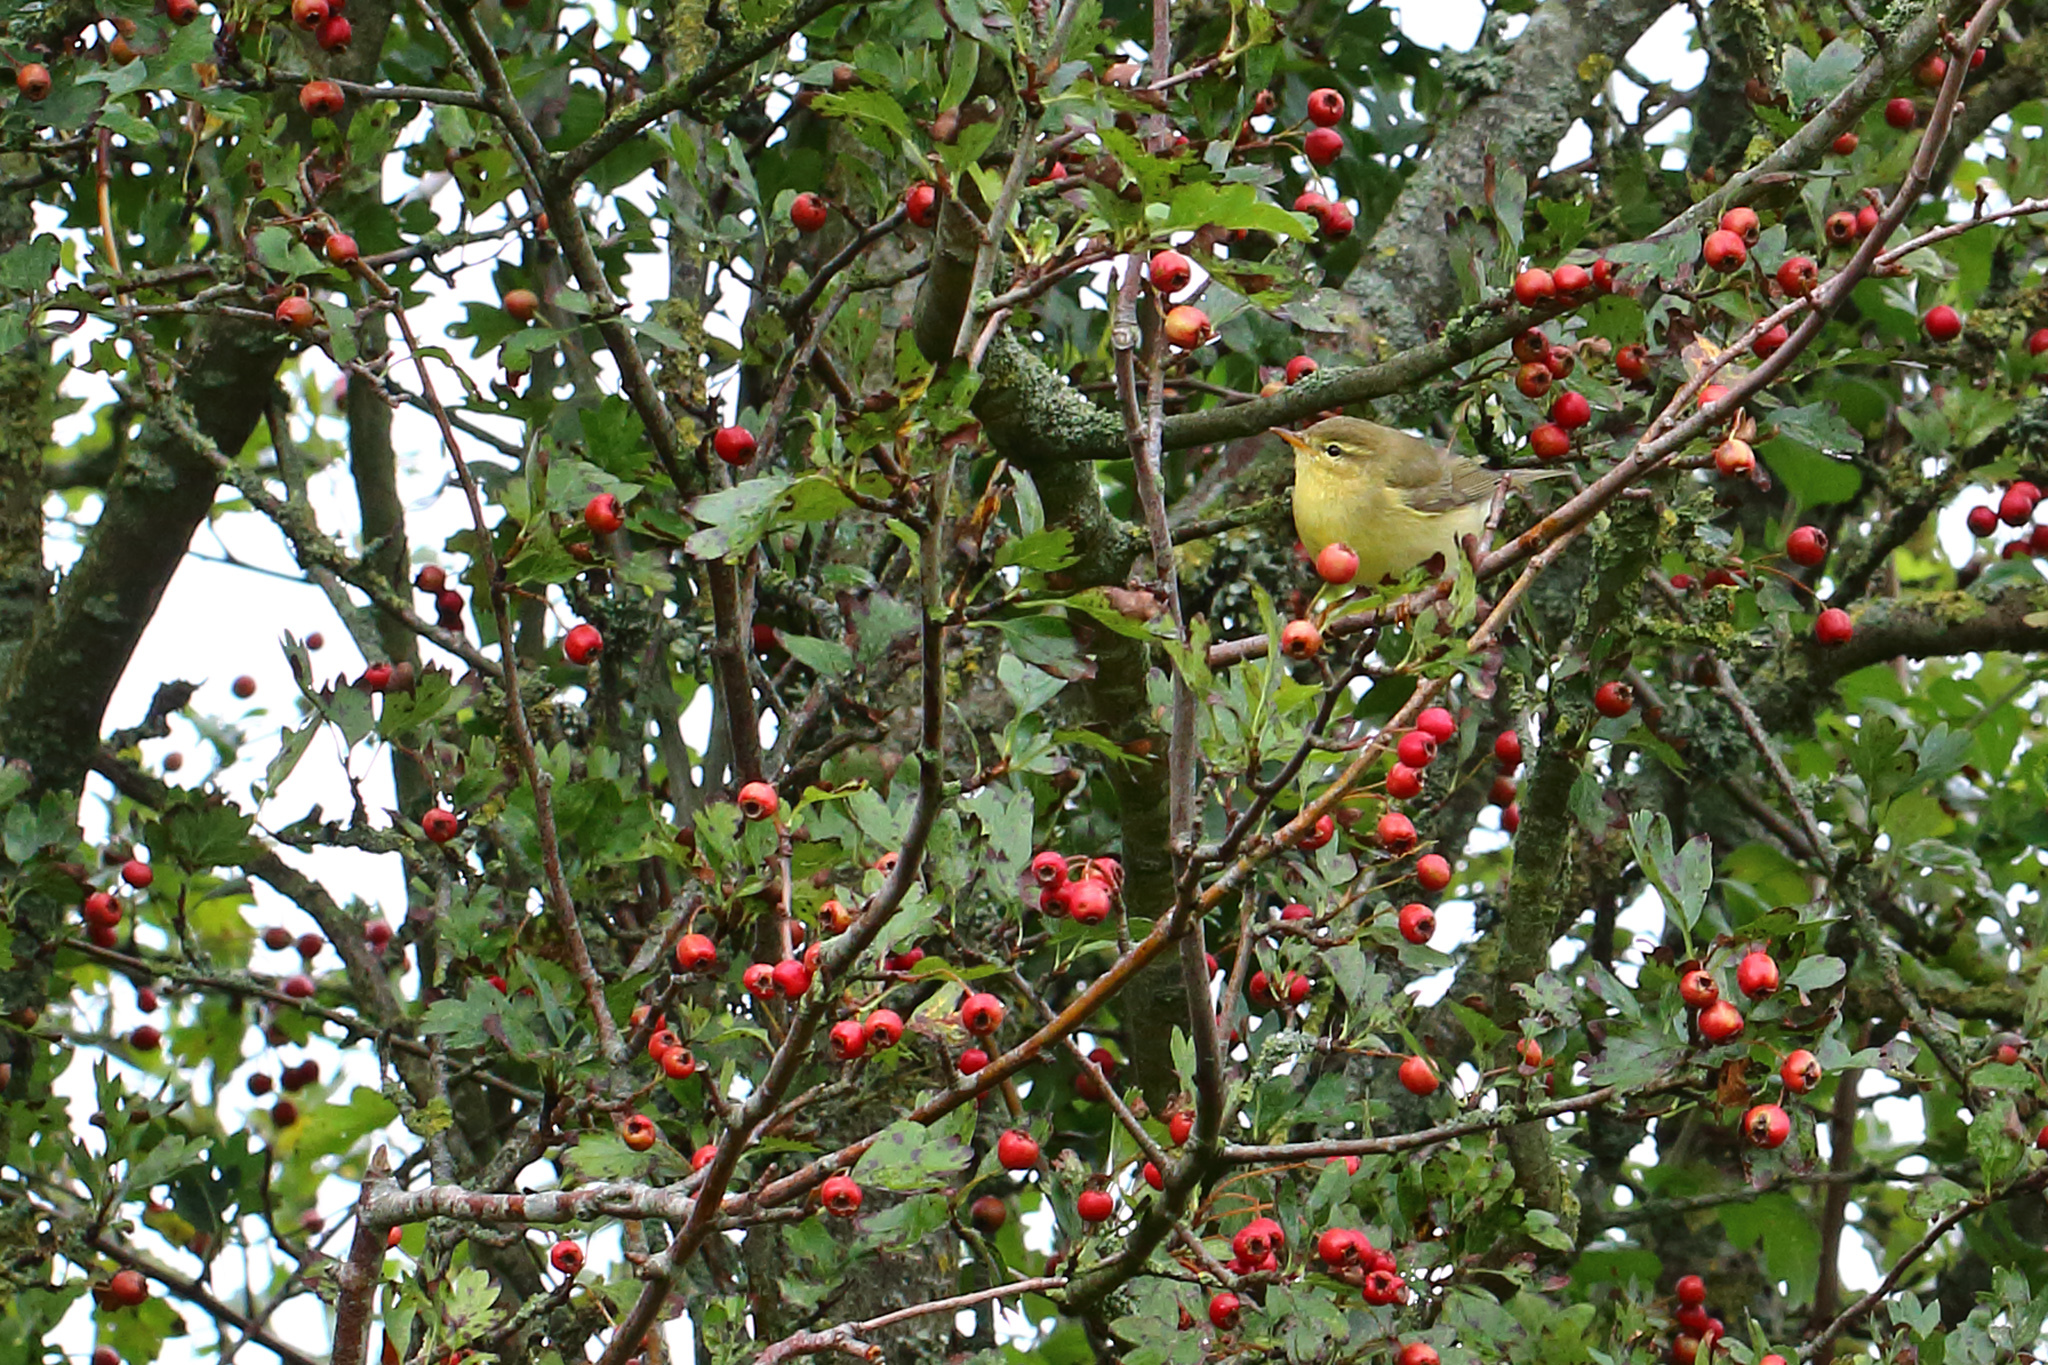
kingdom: Animalia
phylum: Chordata
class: Aves
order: Passeriformes
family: Phylloscopidae
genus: Phylloscopus
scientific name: Phylloscopus trochilus
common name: Willow warbler
